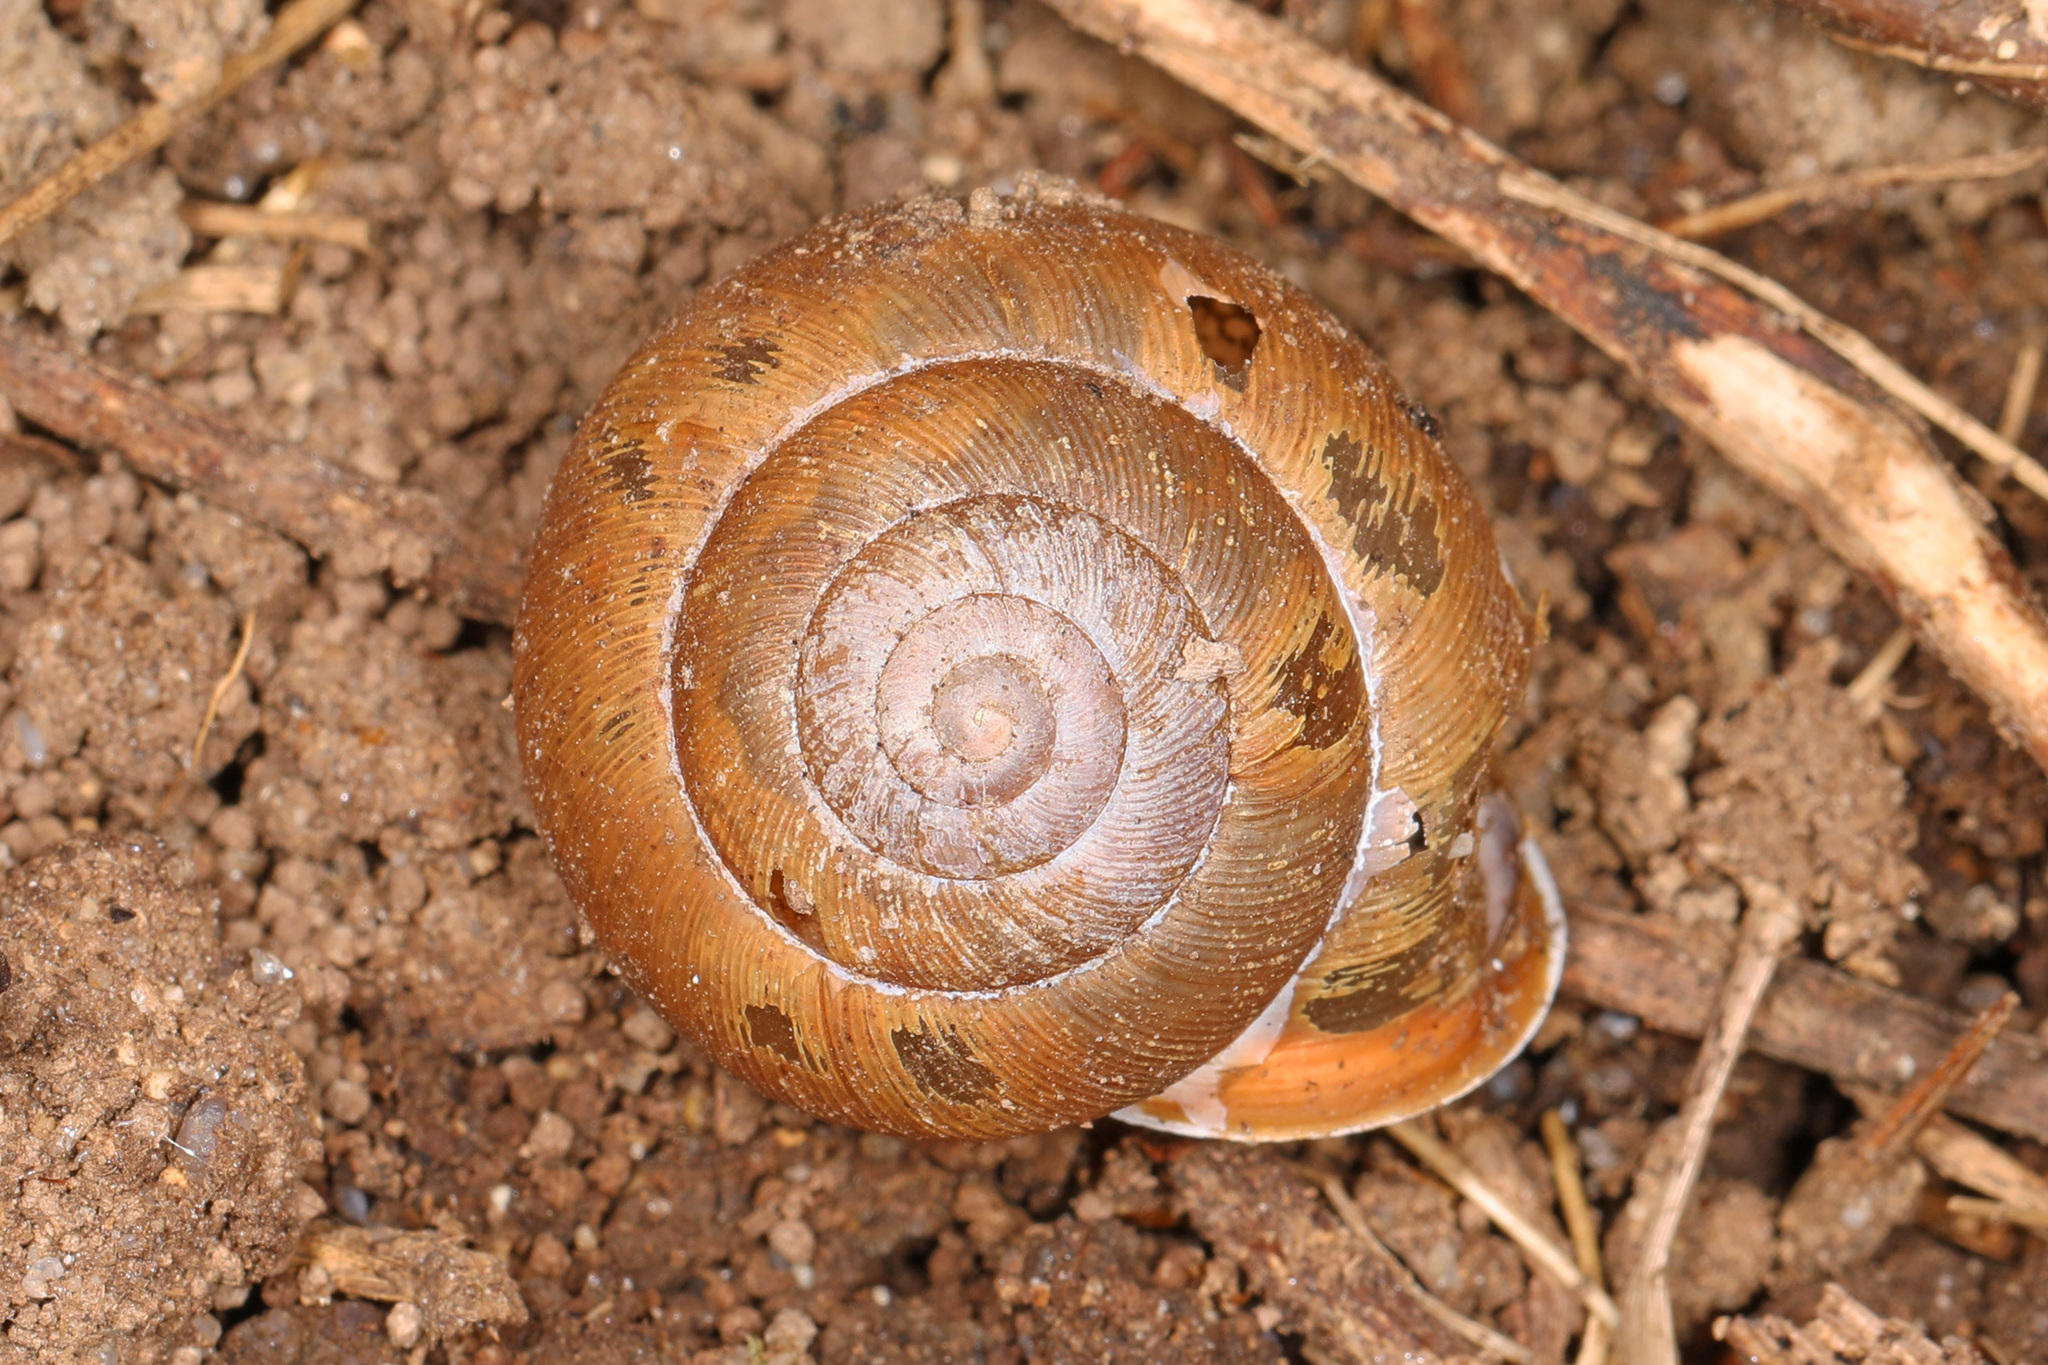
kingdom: Animalia
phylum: Mollusca
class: Gastropoda
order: Stylommatophora
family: Polygyridae
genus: Mesodon
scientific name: Mesodon thyroidus
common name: White-lip globe
